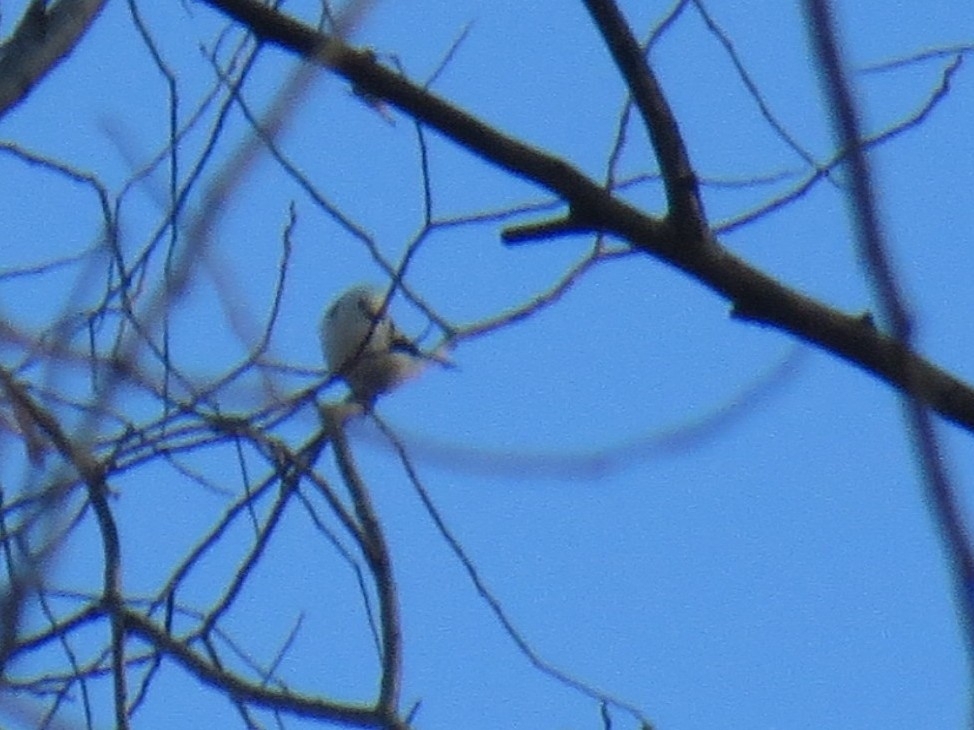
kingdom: Animalia
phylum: Chordata
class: Aves
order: Passeriformes
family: Aegithalidae
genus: Aegithalos
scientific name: Aegithalos caudatus
